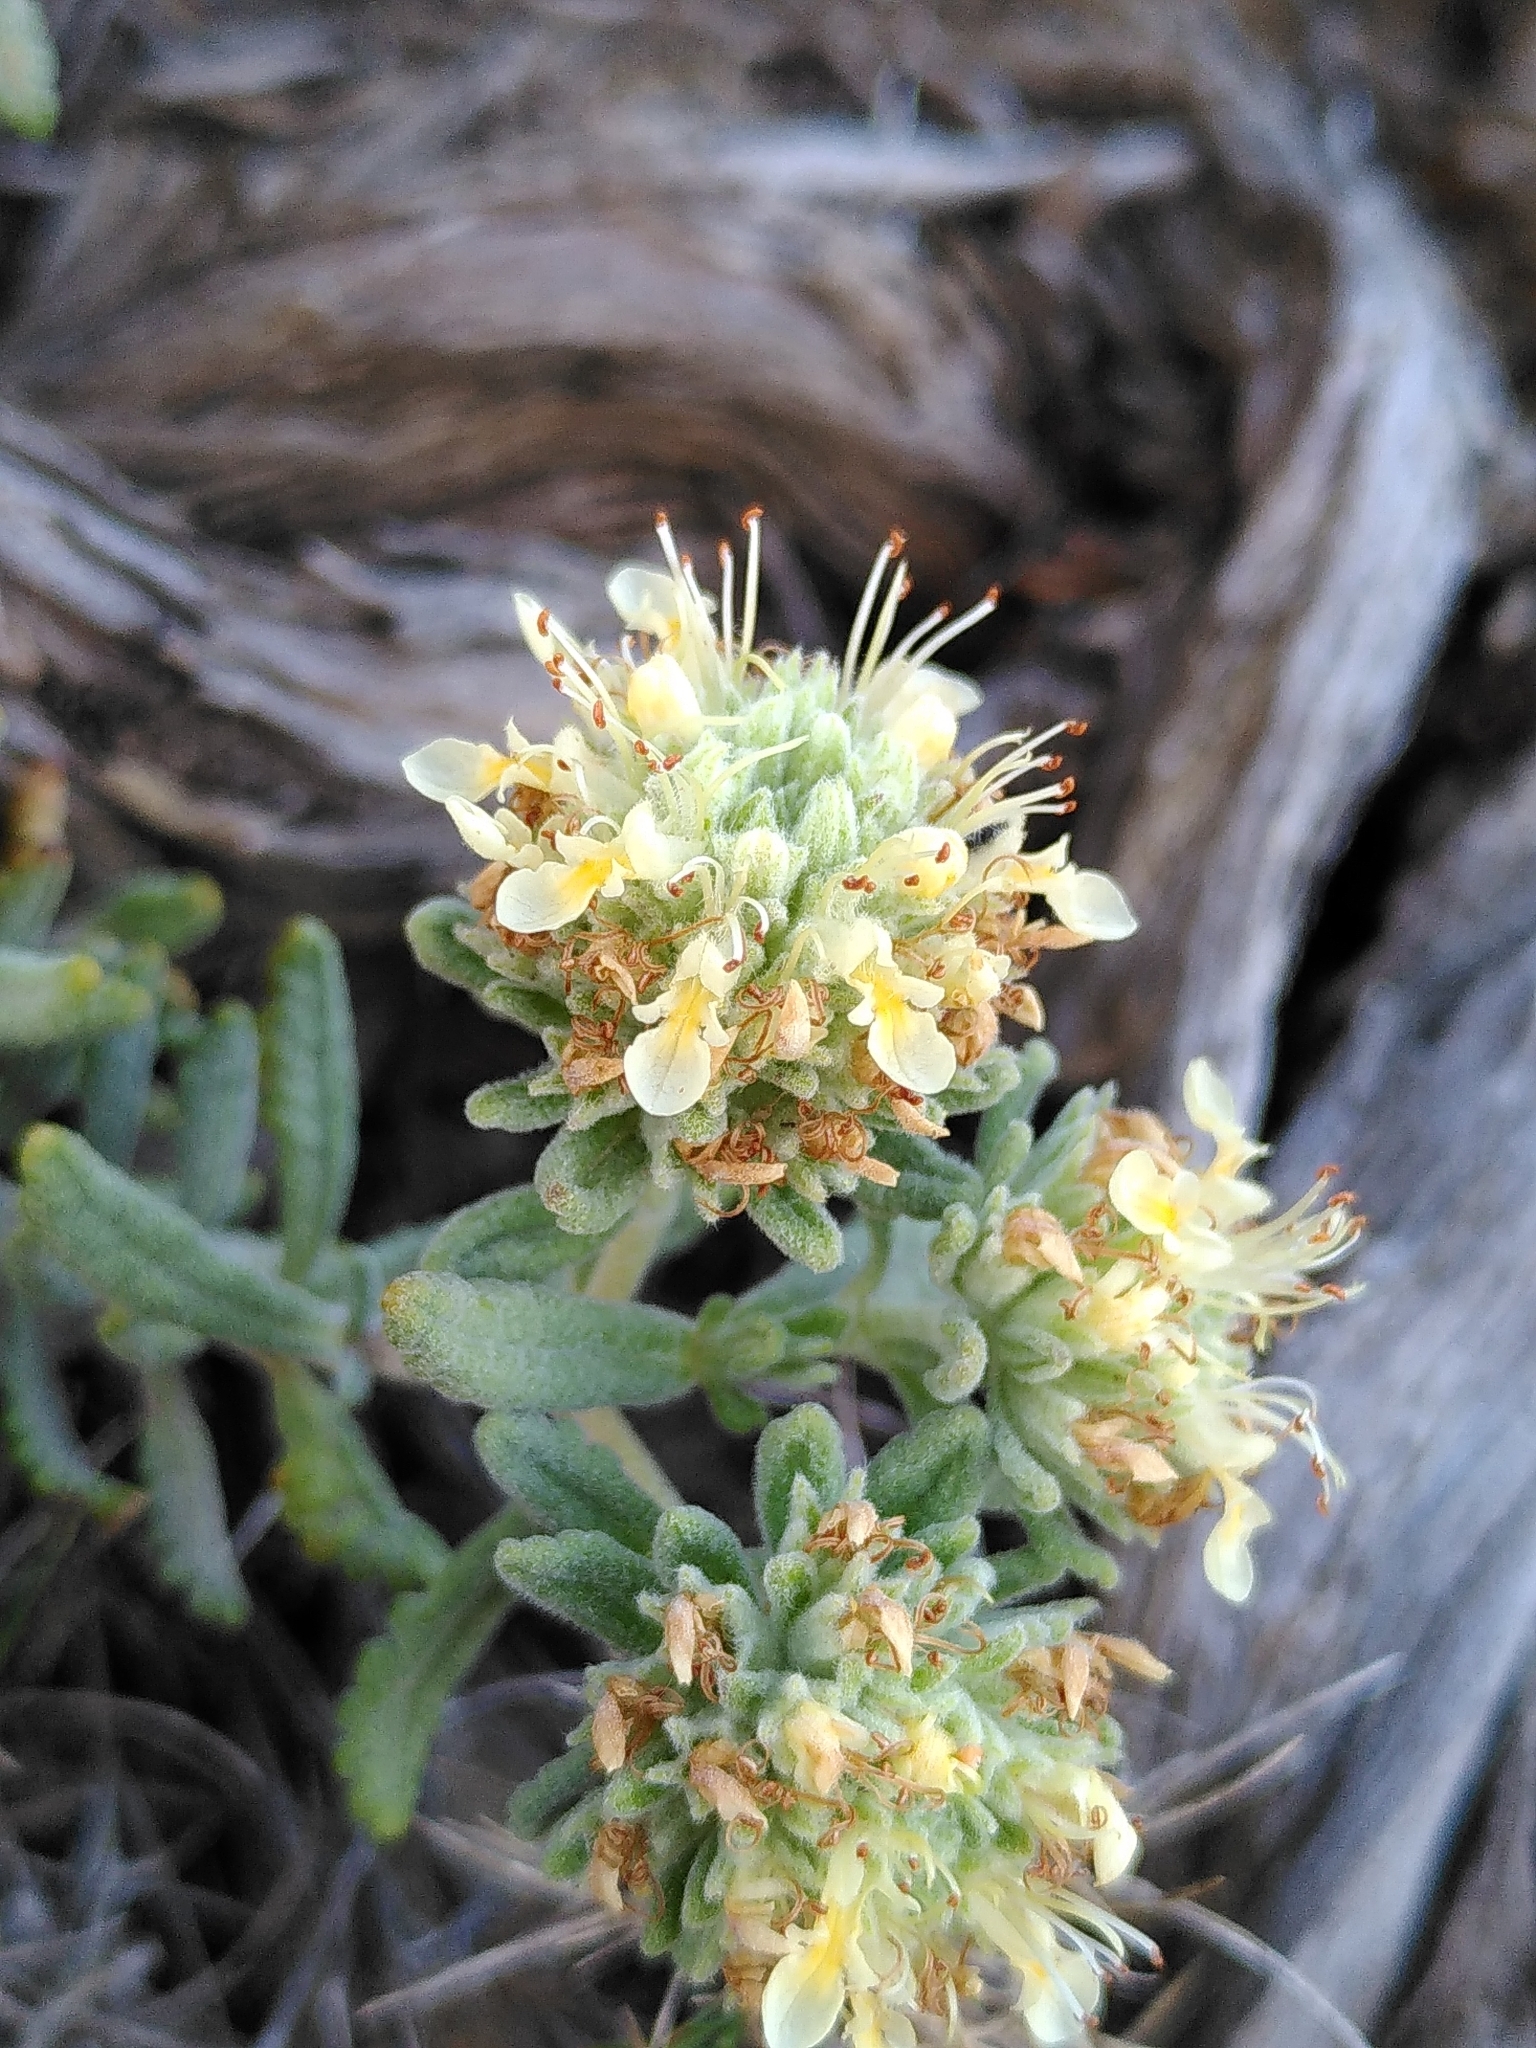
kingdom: Plantae
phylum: Tracheophyta
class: Magnoliopsida
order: Lamiales
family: Lamiaceae
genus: Teucrium
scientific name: Teucrium polium
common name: Poley
